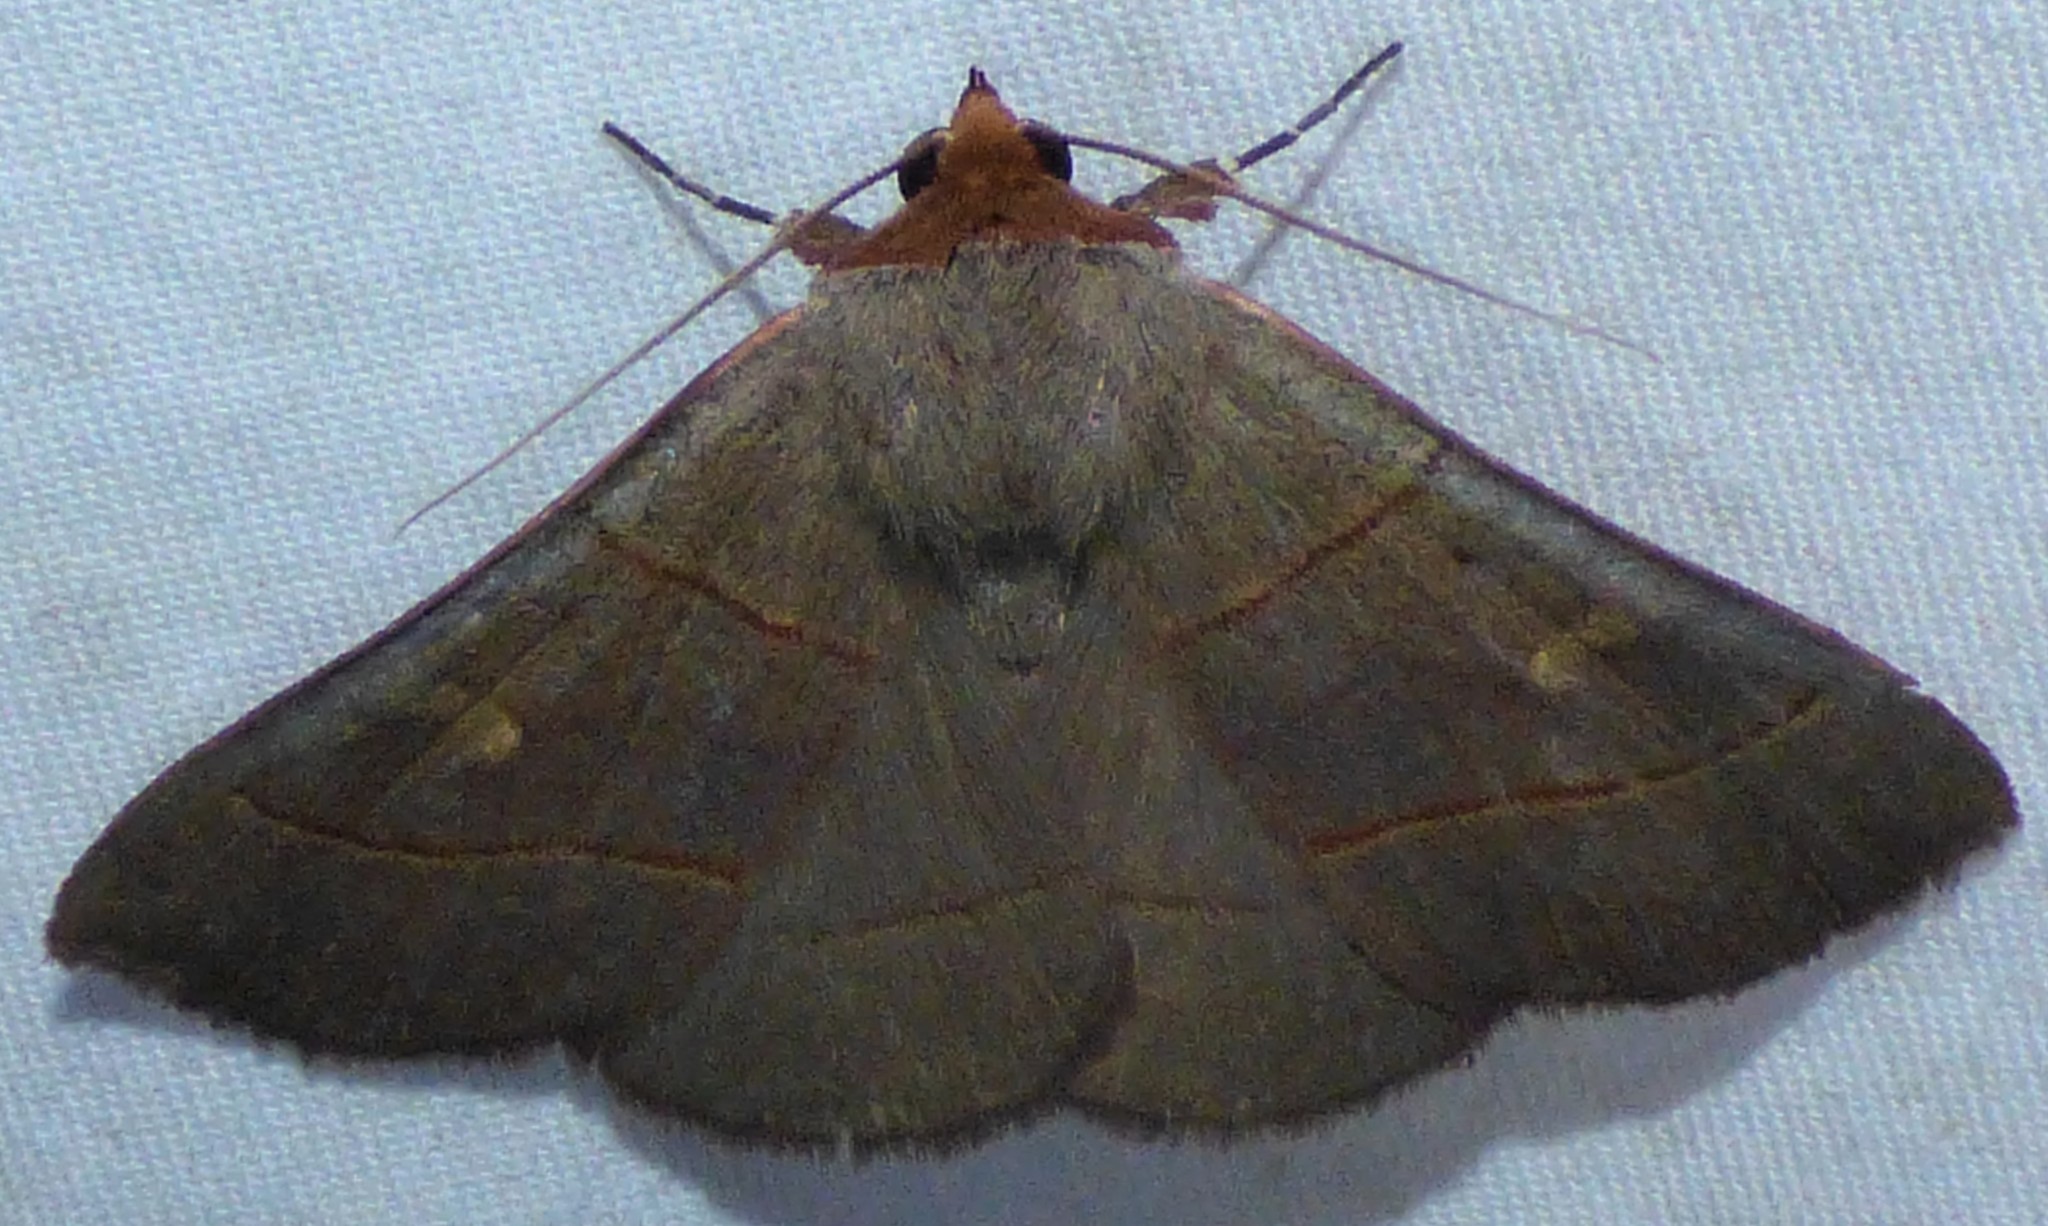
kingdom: Animalia
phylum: Arthropoda
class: Insecta
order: Lepidoptera
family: Erebidae
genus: Panopoda
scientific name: Panopoda rufimargo
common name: Red-lined panopoda moth
